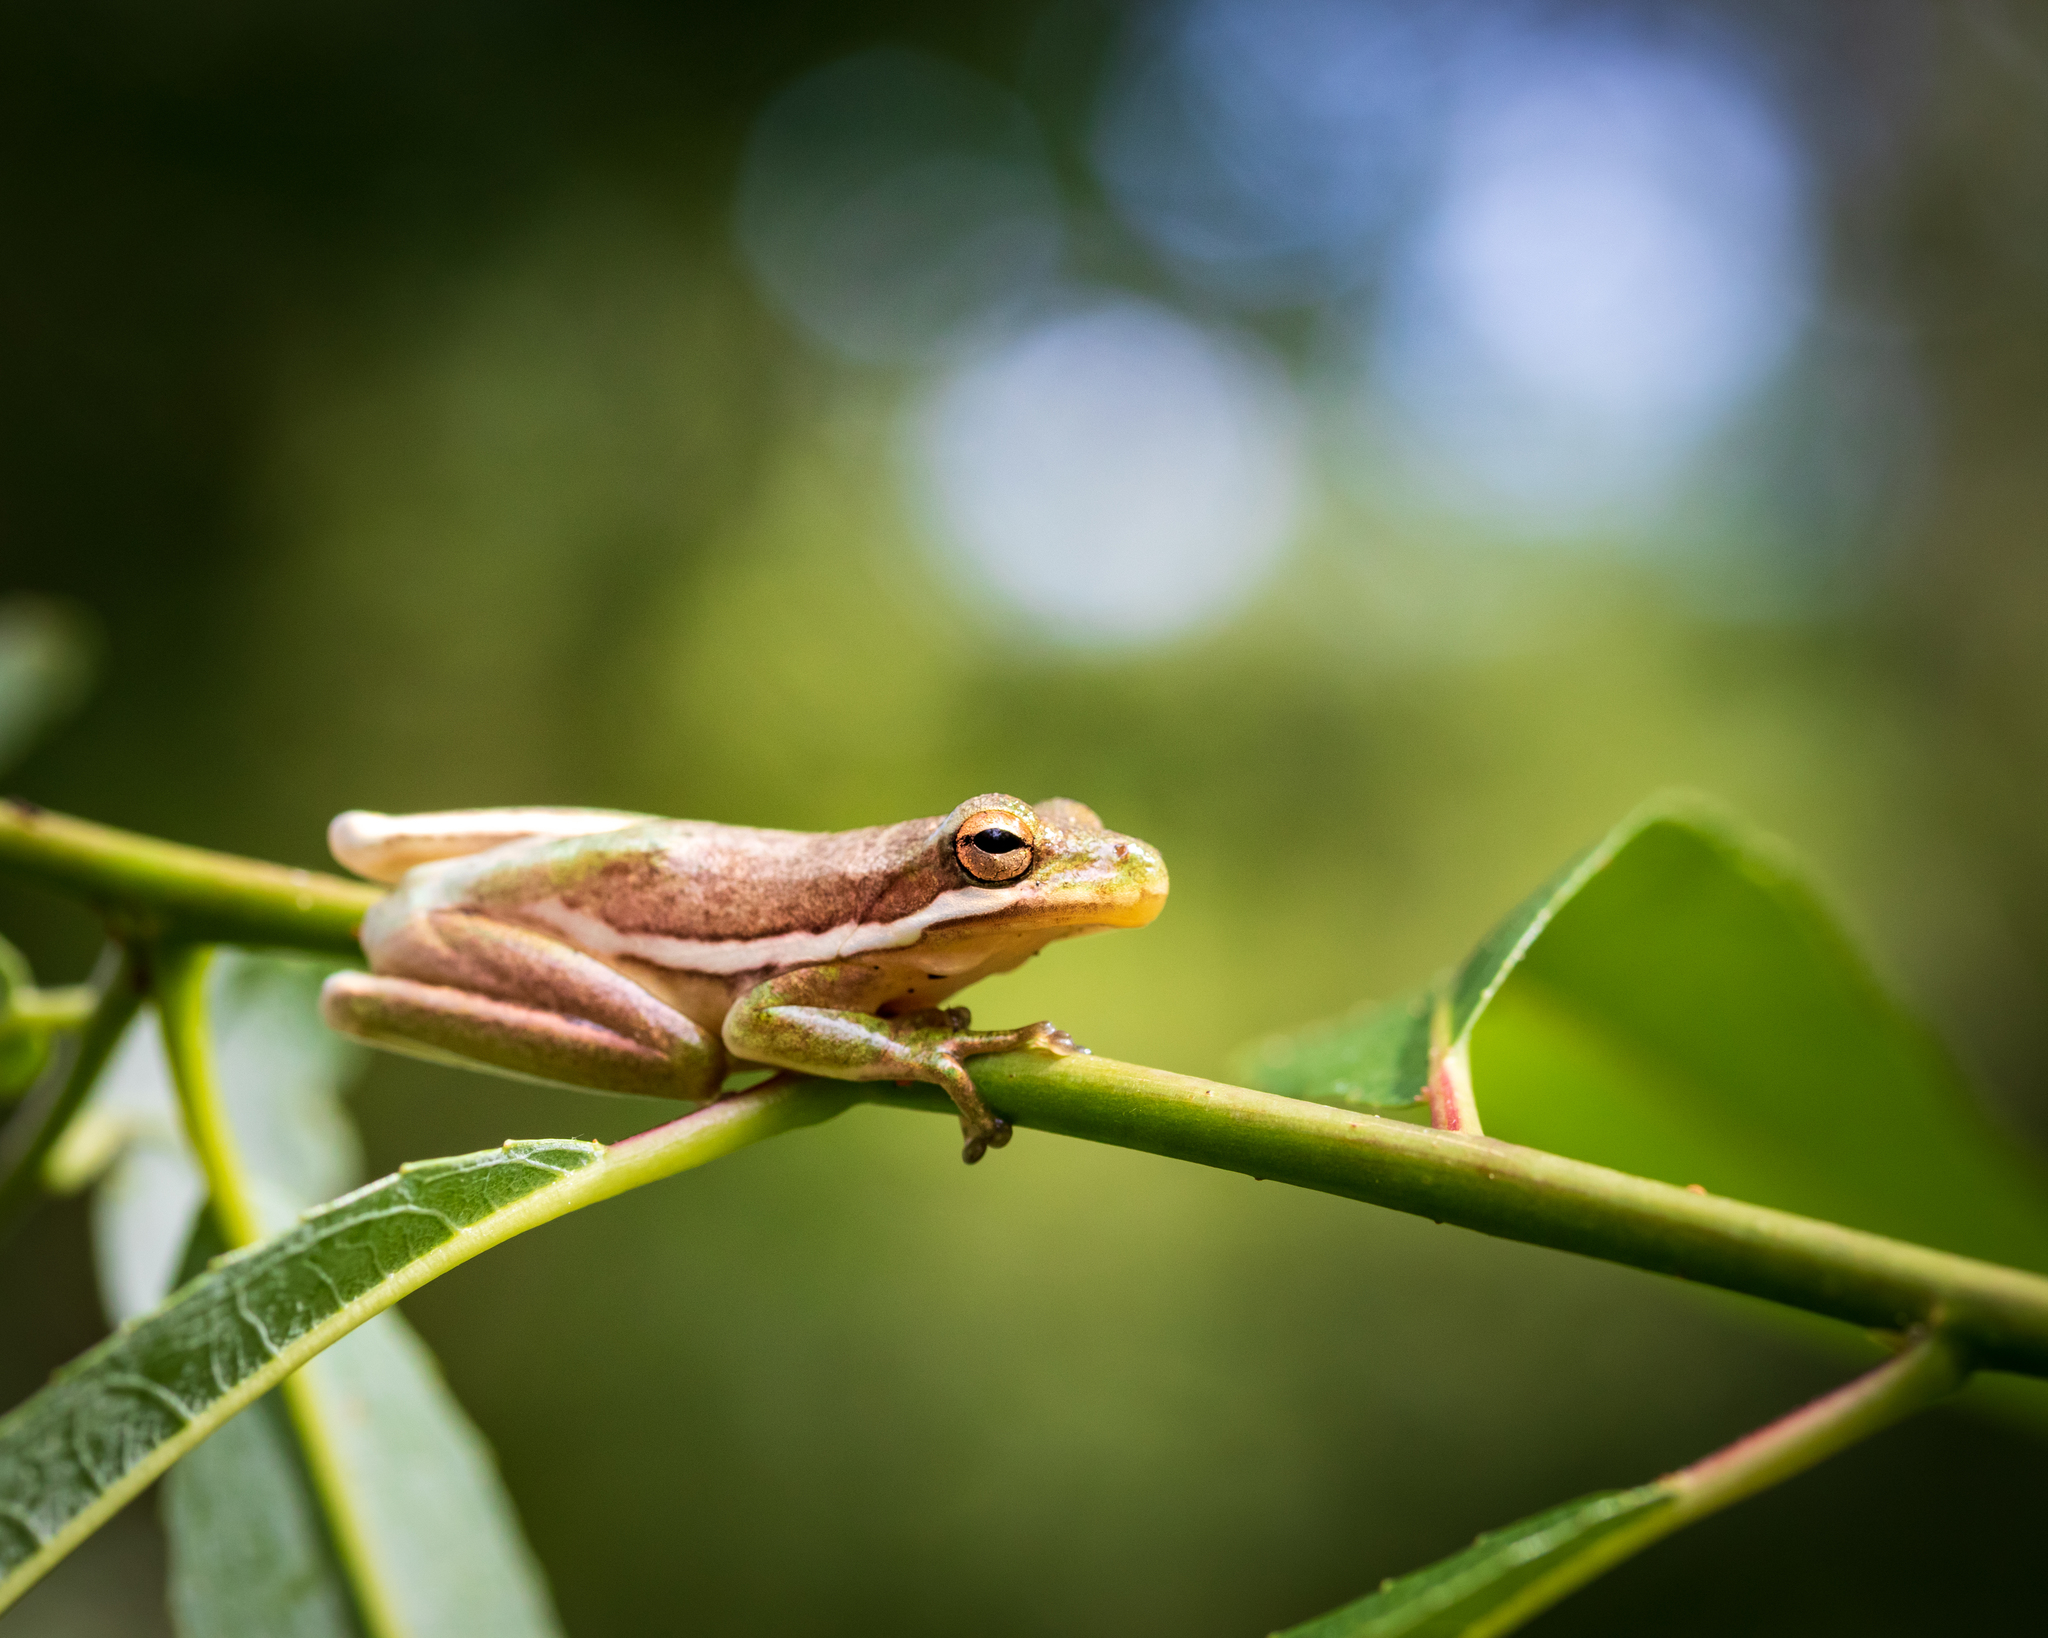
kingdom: Animalia
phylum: Chordata
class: Amphibia
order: Anura
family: Hylidae
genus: Dryophytes
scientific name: Dryophytes cinereus
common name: Green treefrog
